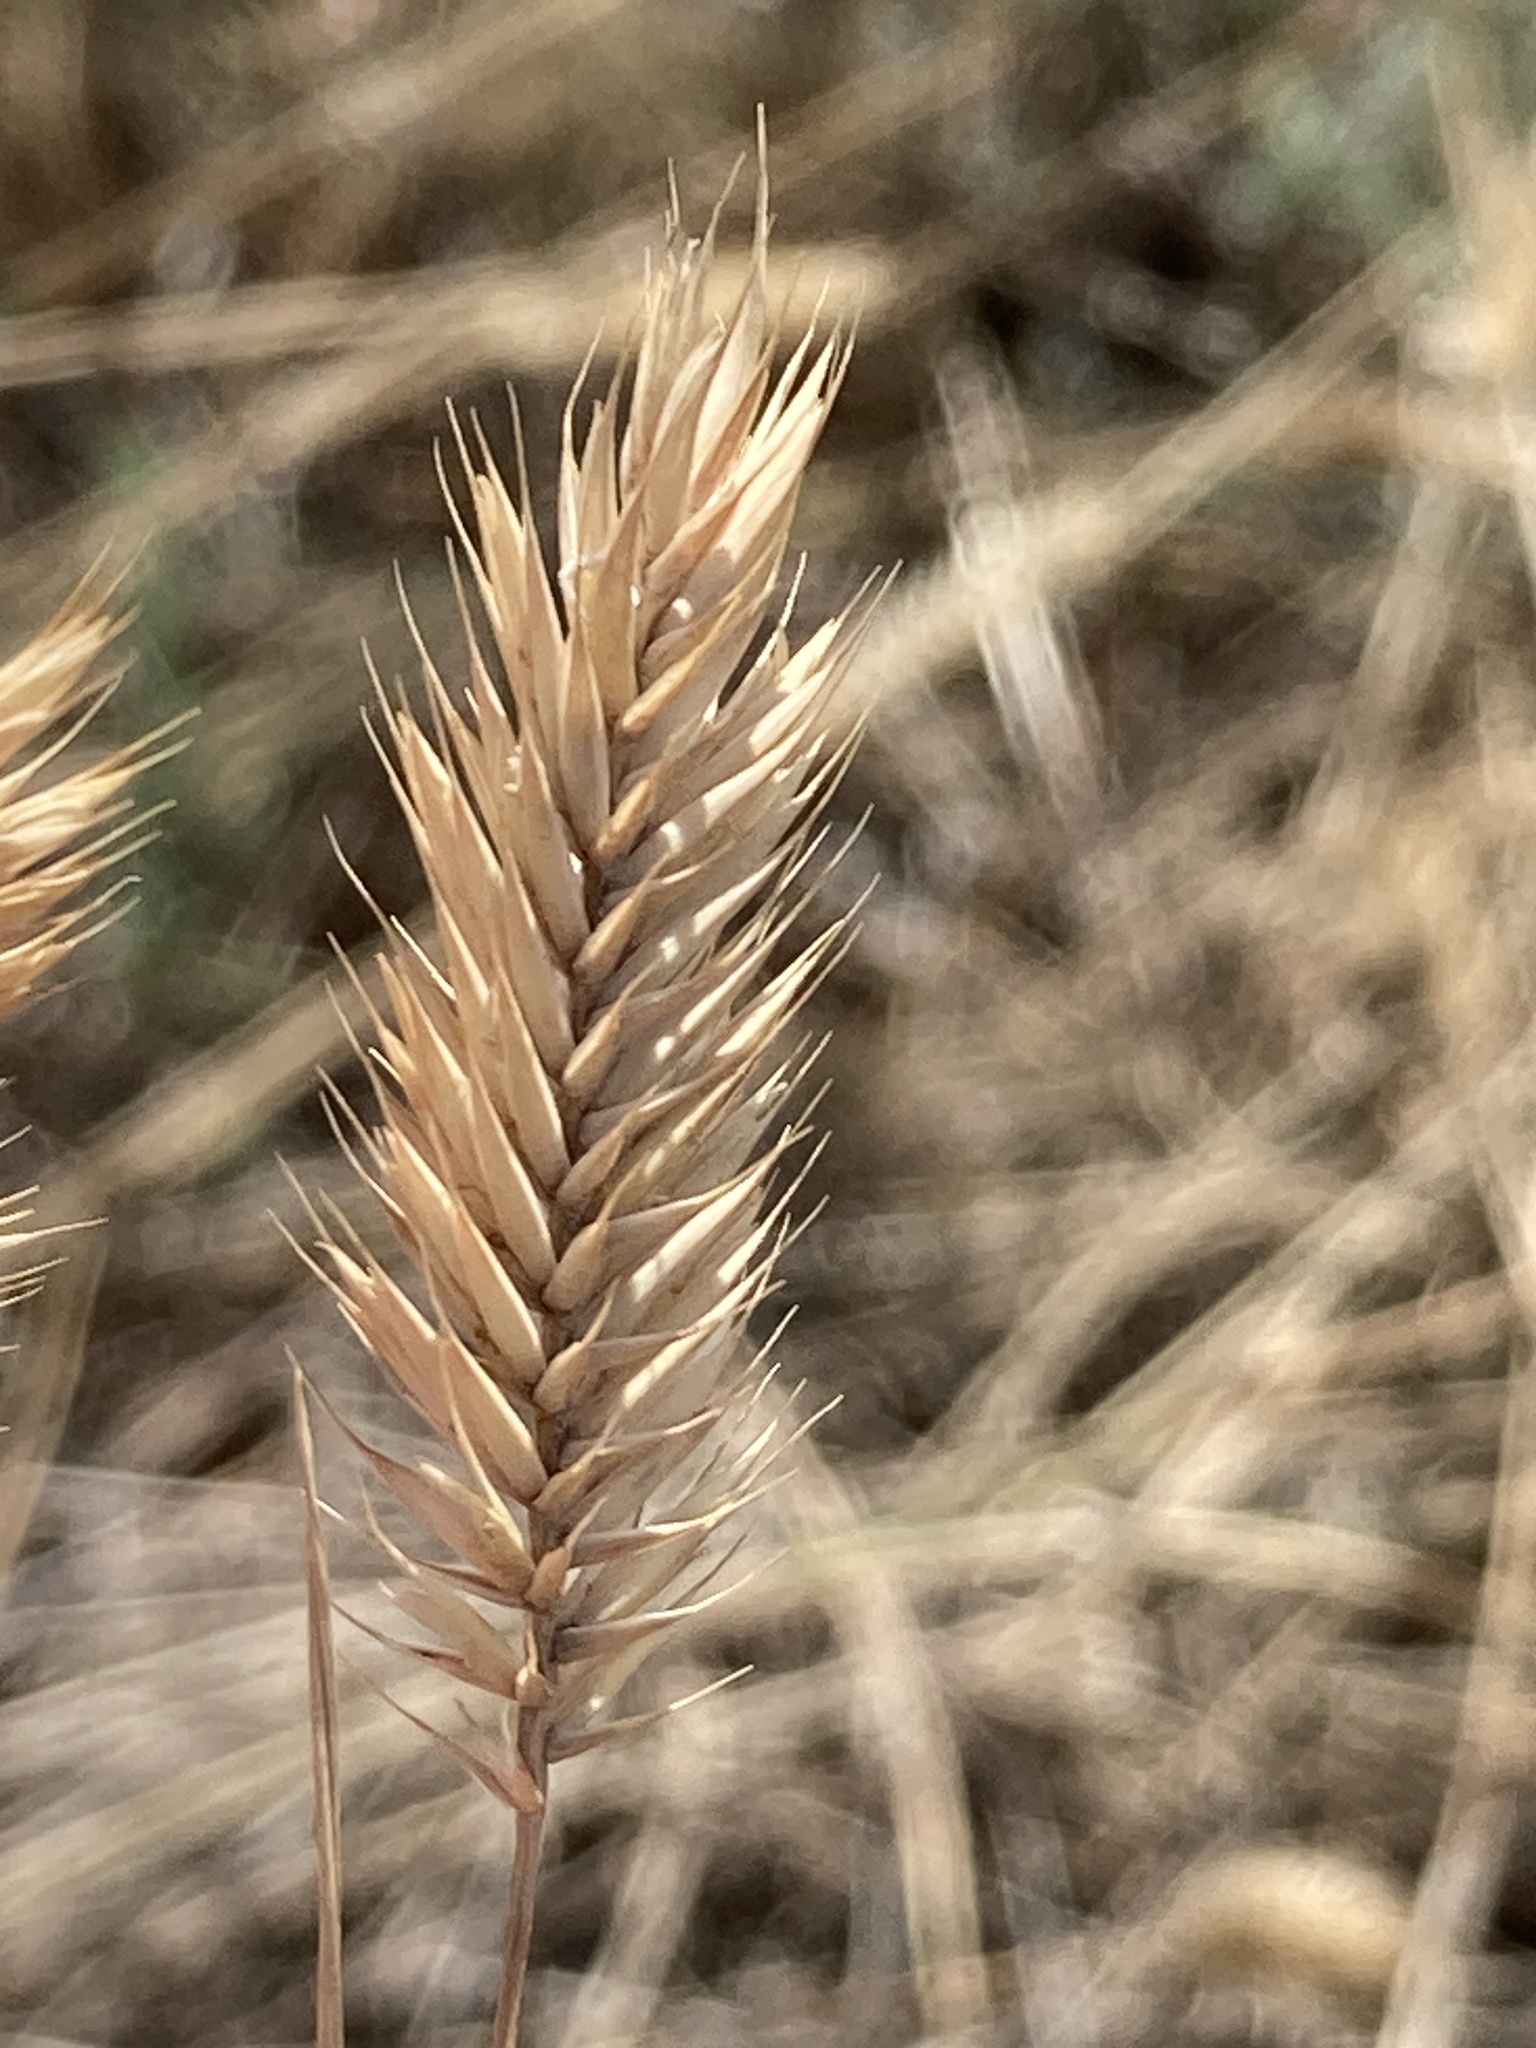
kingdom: Plantae
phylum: Tracheophyta
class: Liliopsida
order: Poales
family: Poaceae
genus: Agropyron
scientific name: Agropyron cristatum
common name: Crested wheatgrass
